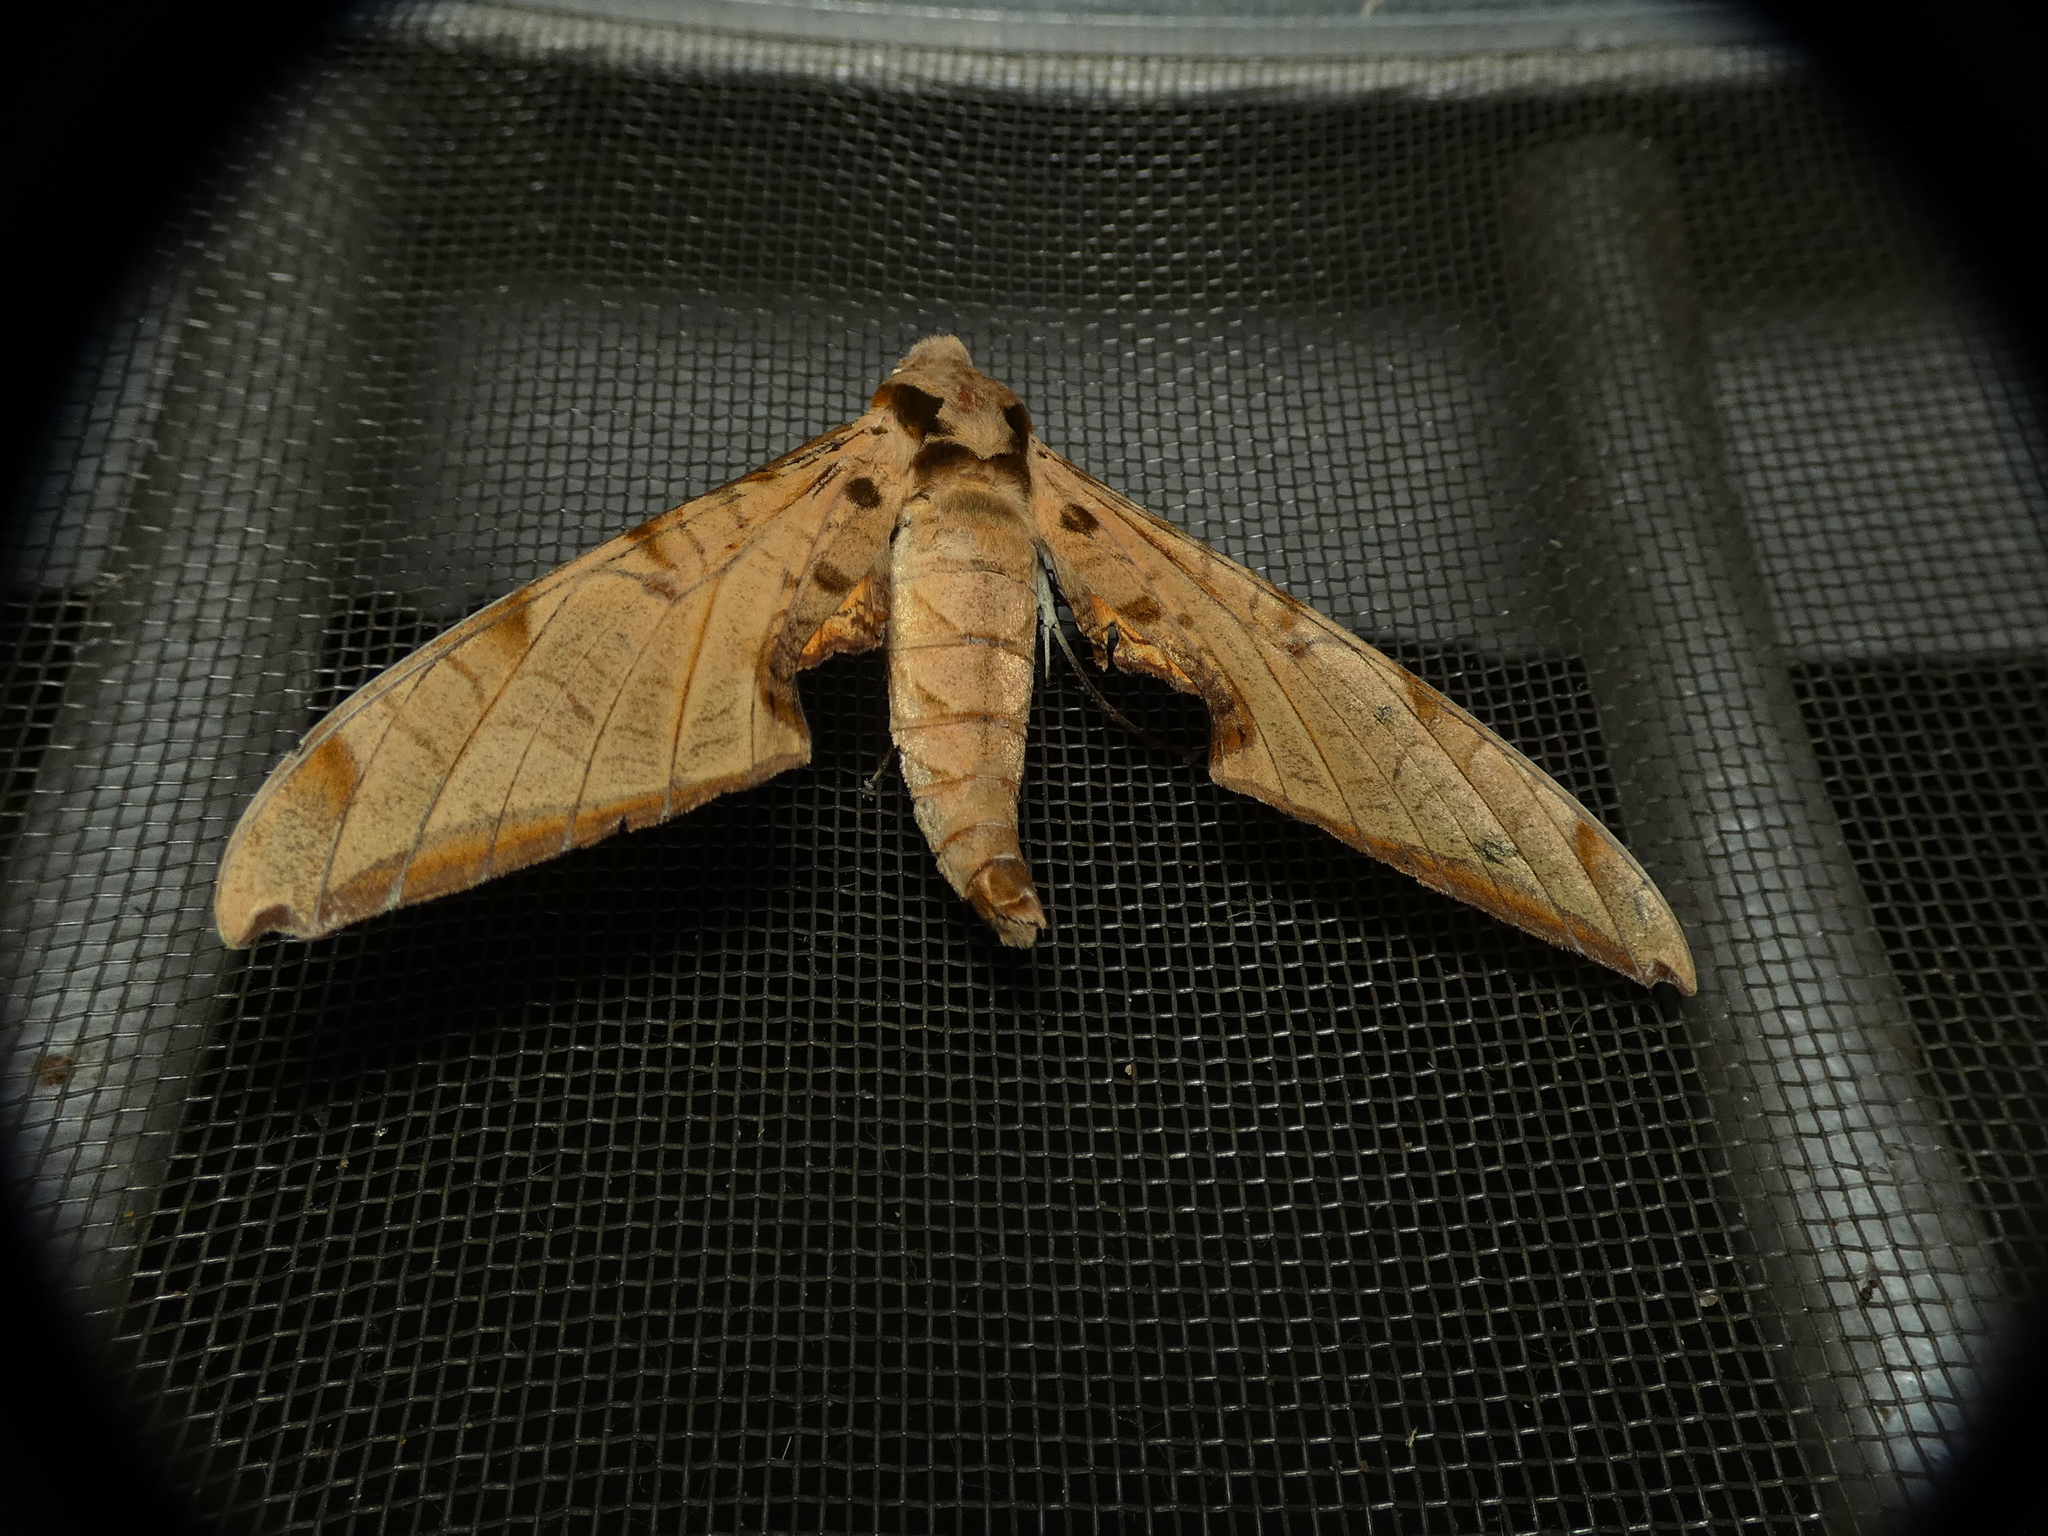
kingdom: Animalia
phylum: Arthropoda
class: Insecta
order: Lepidoptera
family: Sphingidae
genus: Protambulyx
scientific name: Protambulyx strigilis
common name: Streaked sphinx
